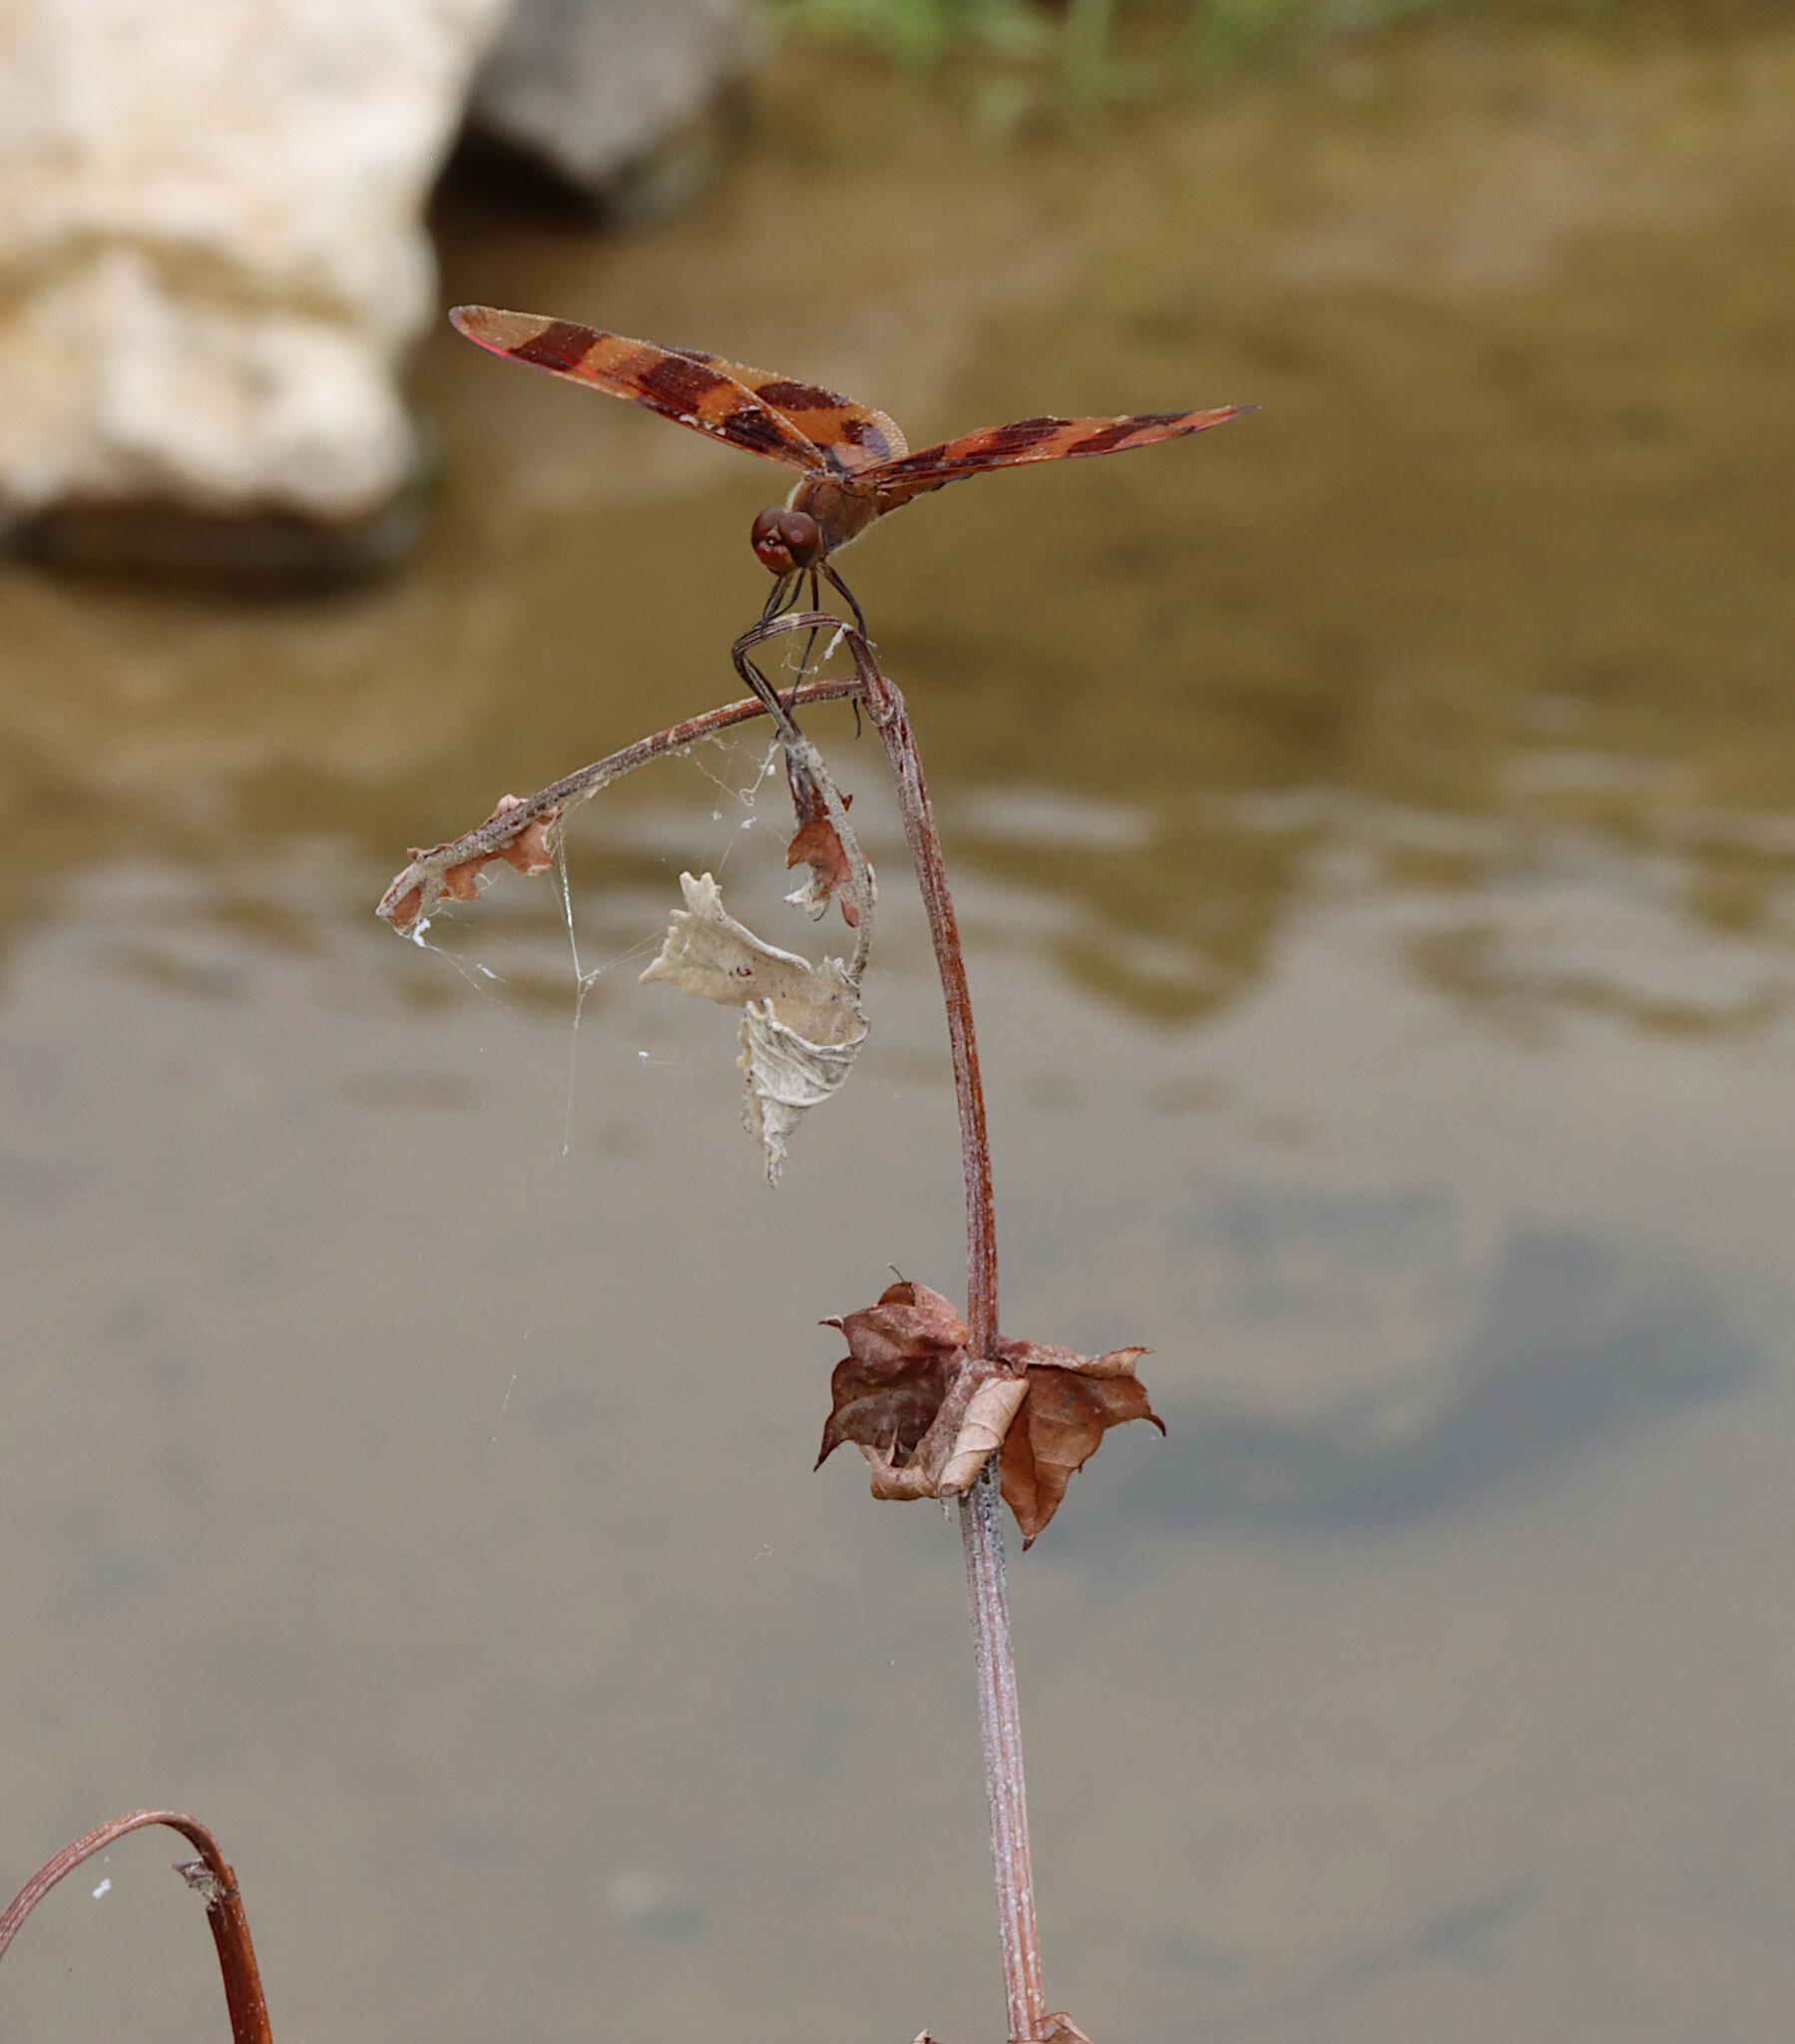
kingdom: Animalia
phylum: Arthropoda
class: Insecta
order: Odonata
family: Libellulidae
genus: Celithemis
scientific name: Celithemis eponina
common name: Halloween pennant
